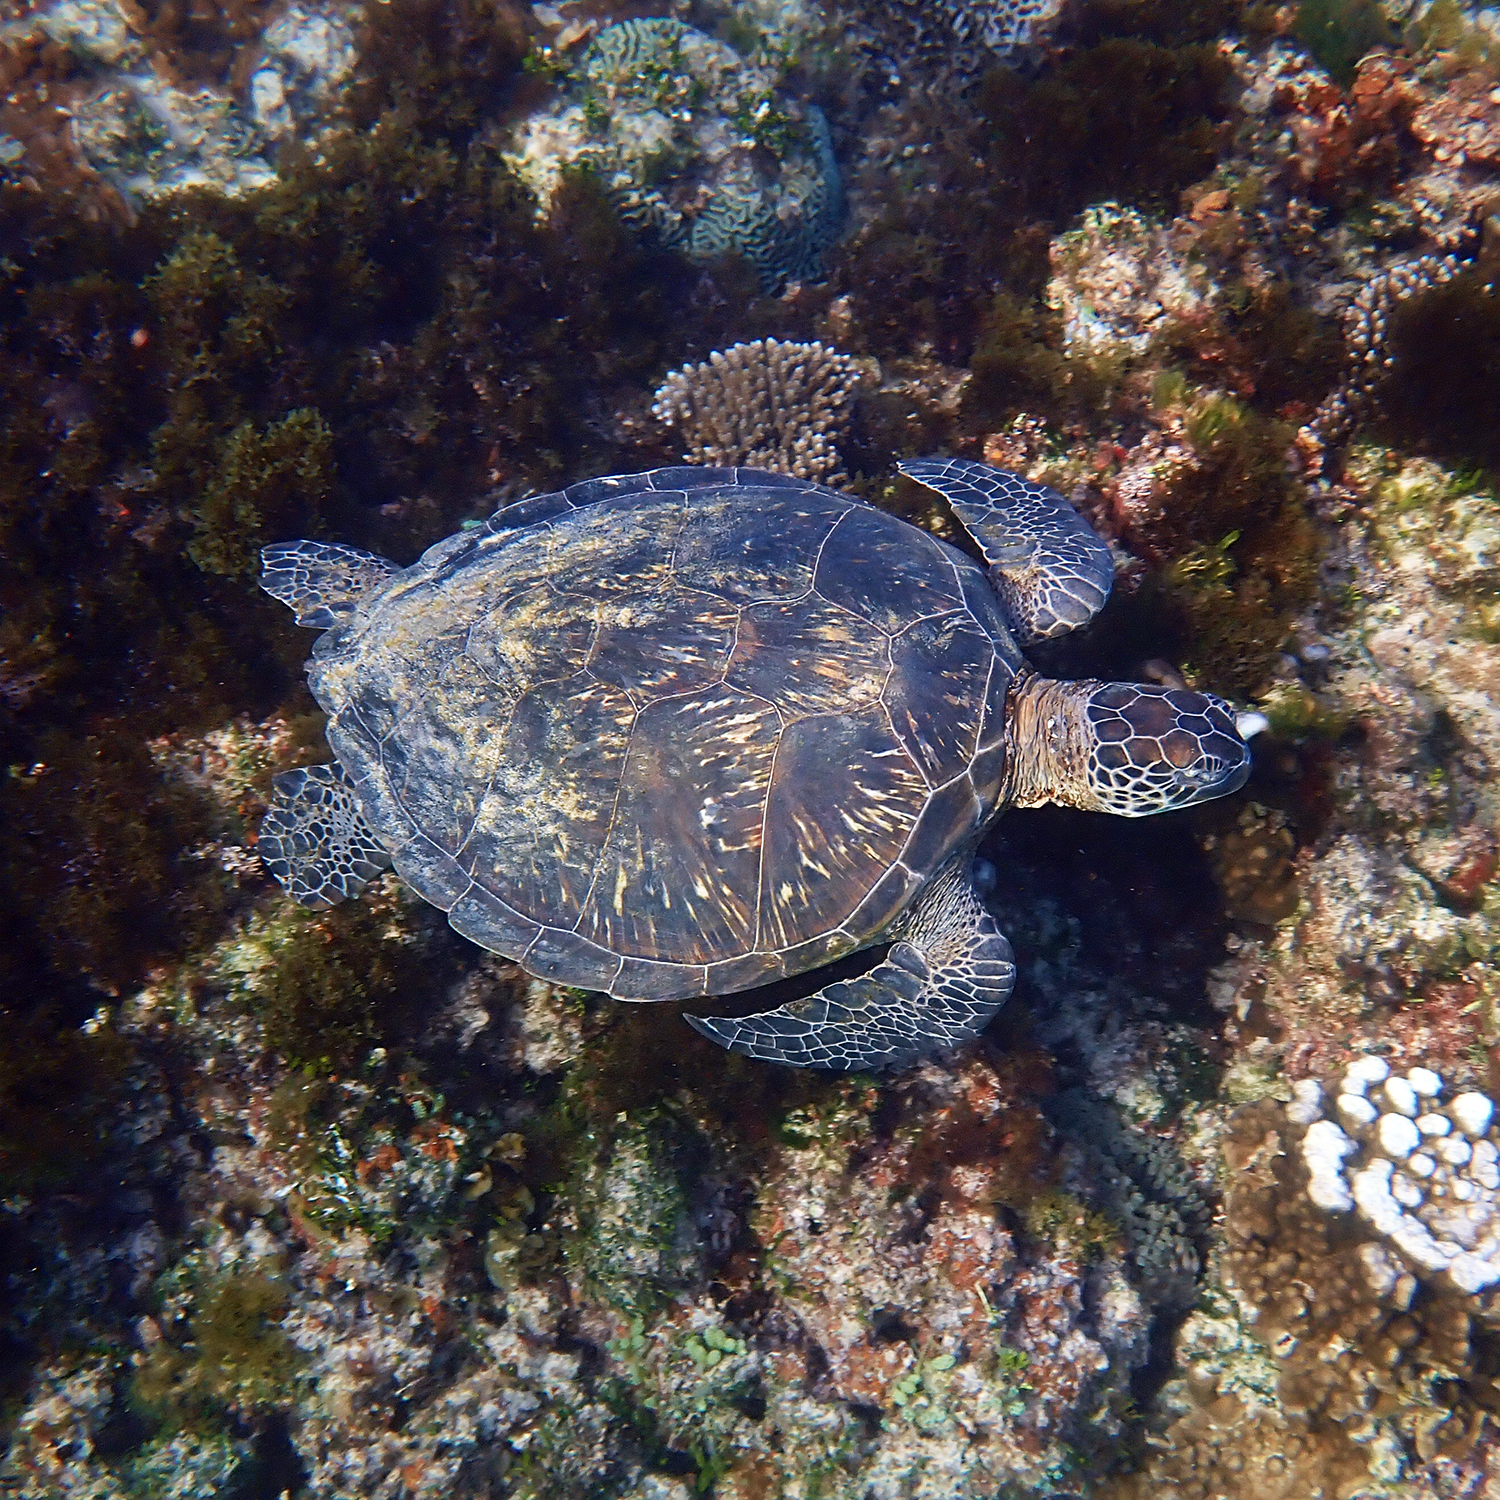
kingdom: Animalia
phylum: Chordata
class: Testudines
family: Cheloniidae
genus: Chelonia
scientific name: Chelonia mydas
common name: Green turtle
